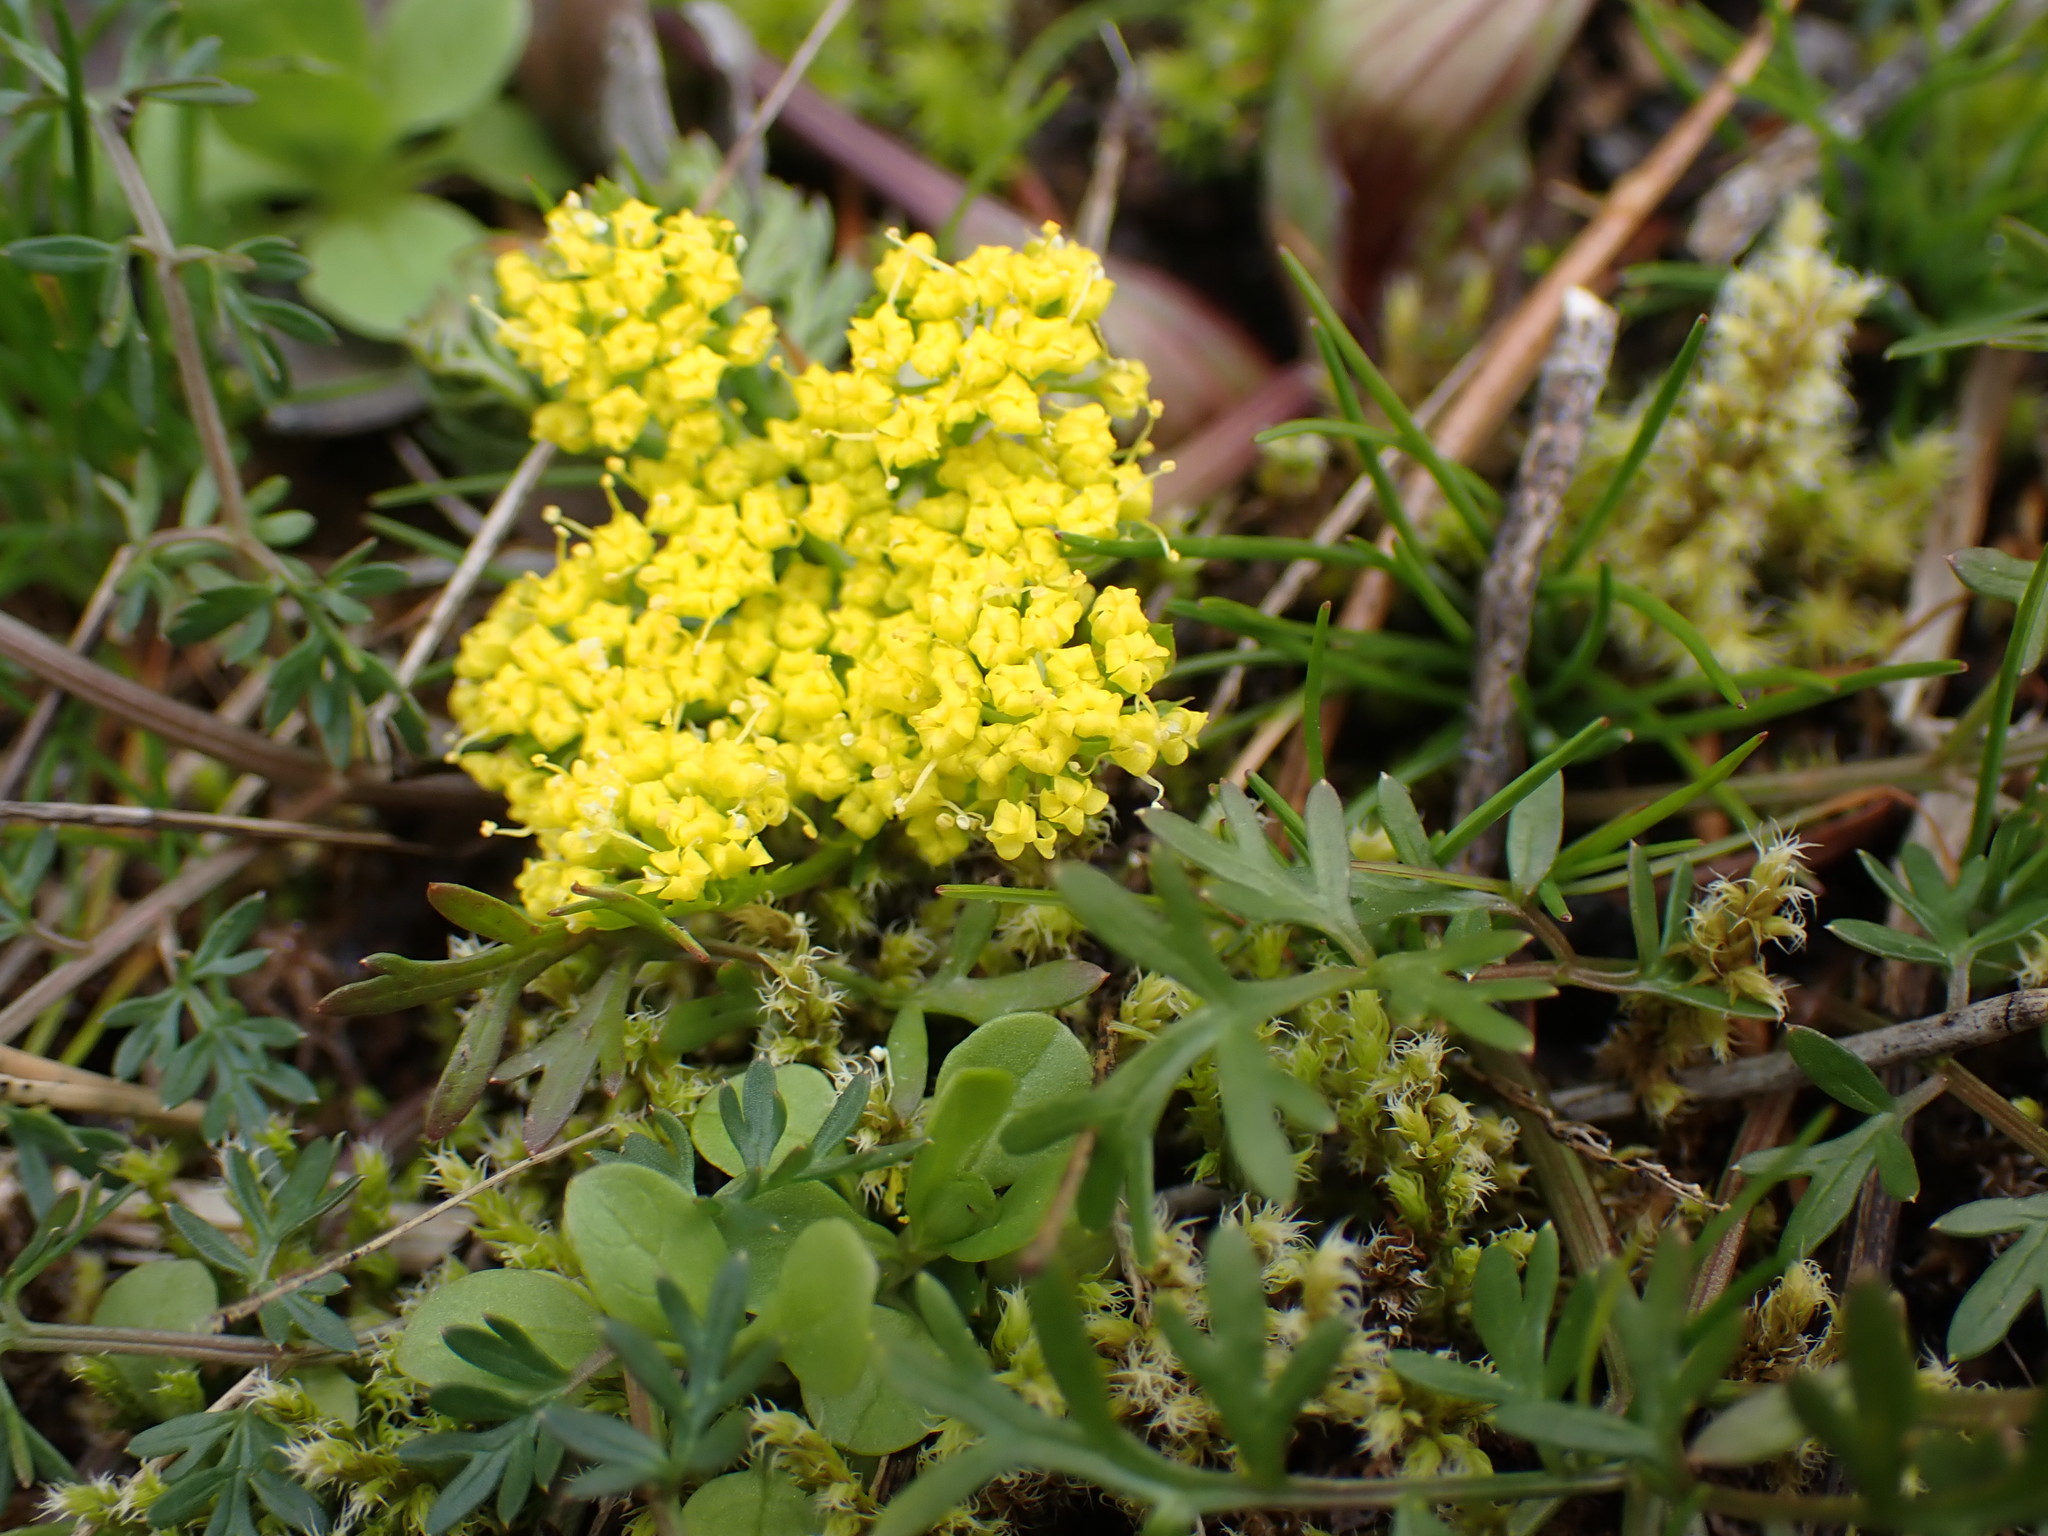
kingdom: Plantae
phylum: Tracheophyta
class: Magnoliopsida
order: Apiales
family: Apiaceae
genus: Lomatium
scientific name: Lomatium utriculatum
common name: Fine-leaf desert-parsley
